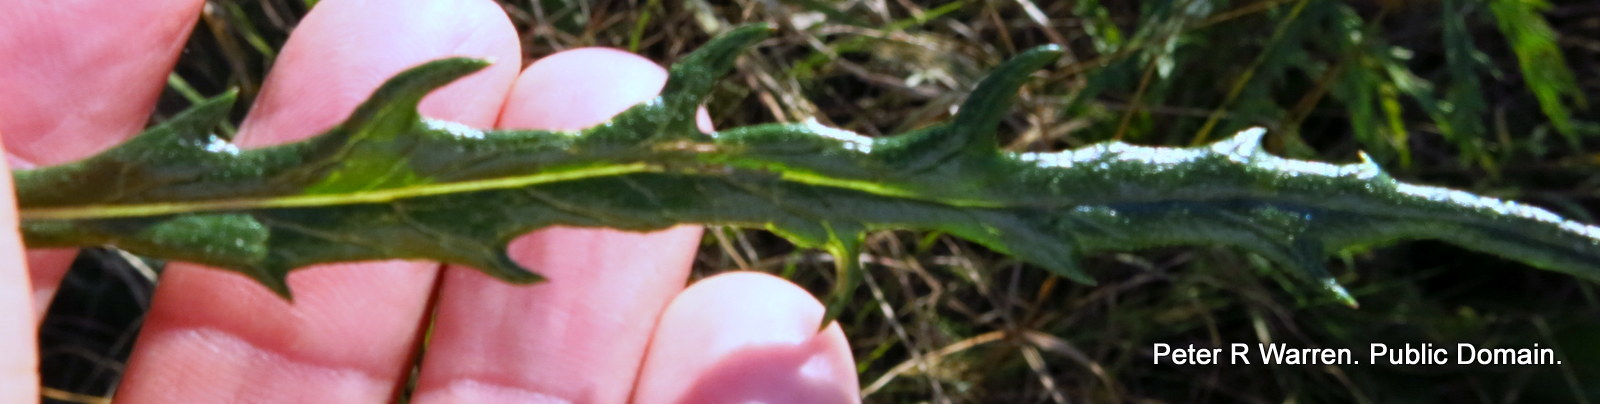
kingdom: Plantae
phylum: Tracheophyta
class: Magnoliopsida
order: Asterales
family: Asteraceae
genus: Senecio
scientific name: Senecio polyanthemoides
